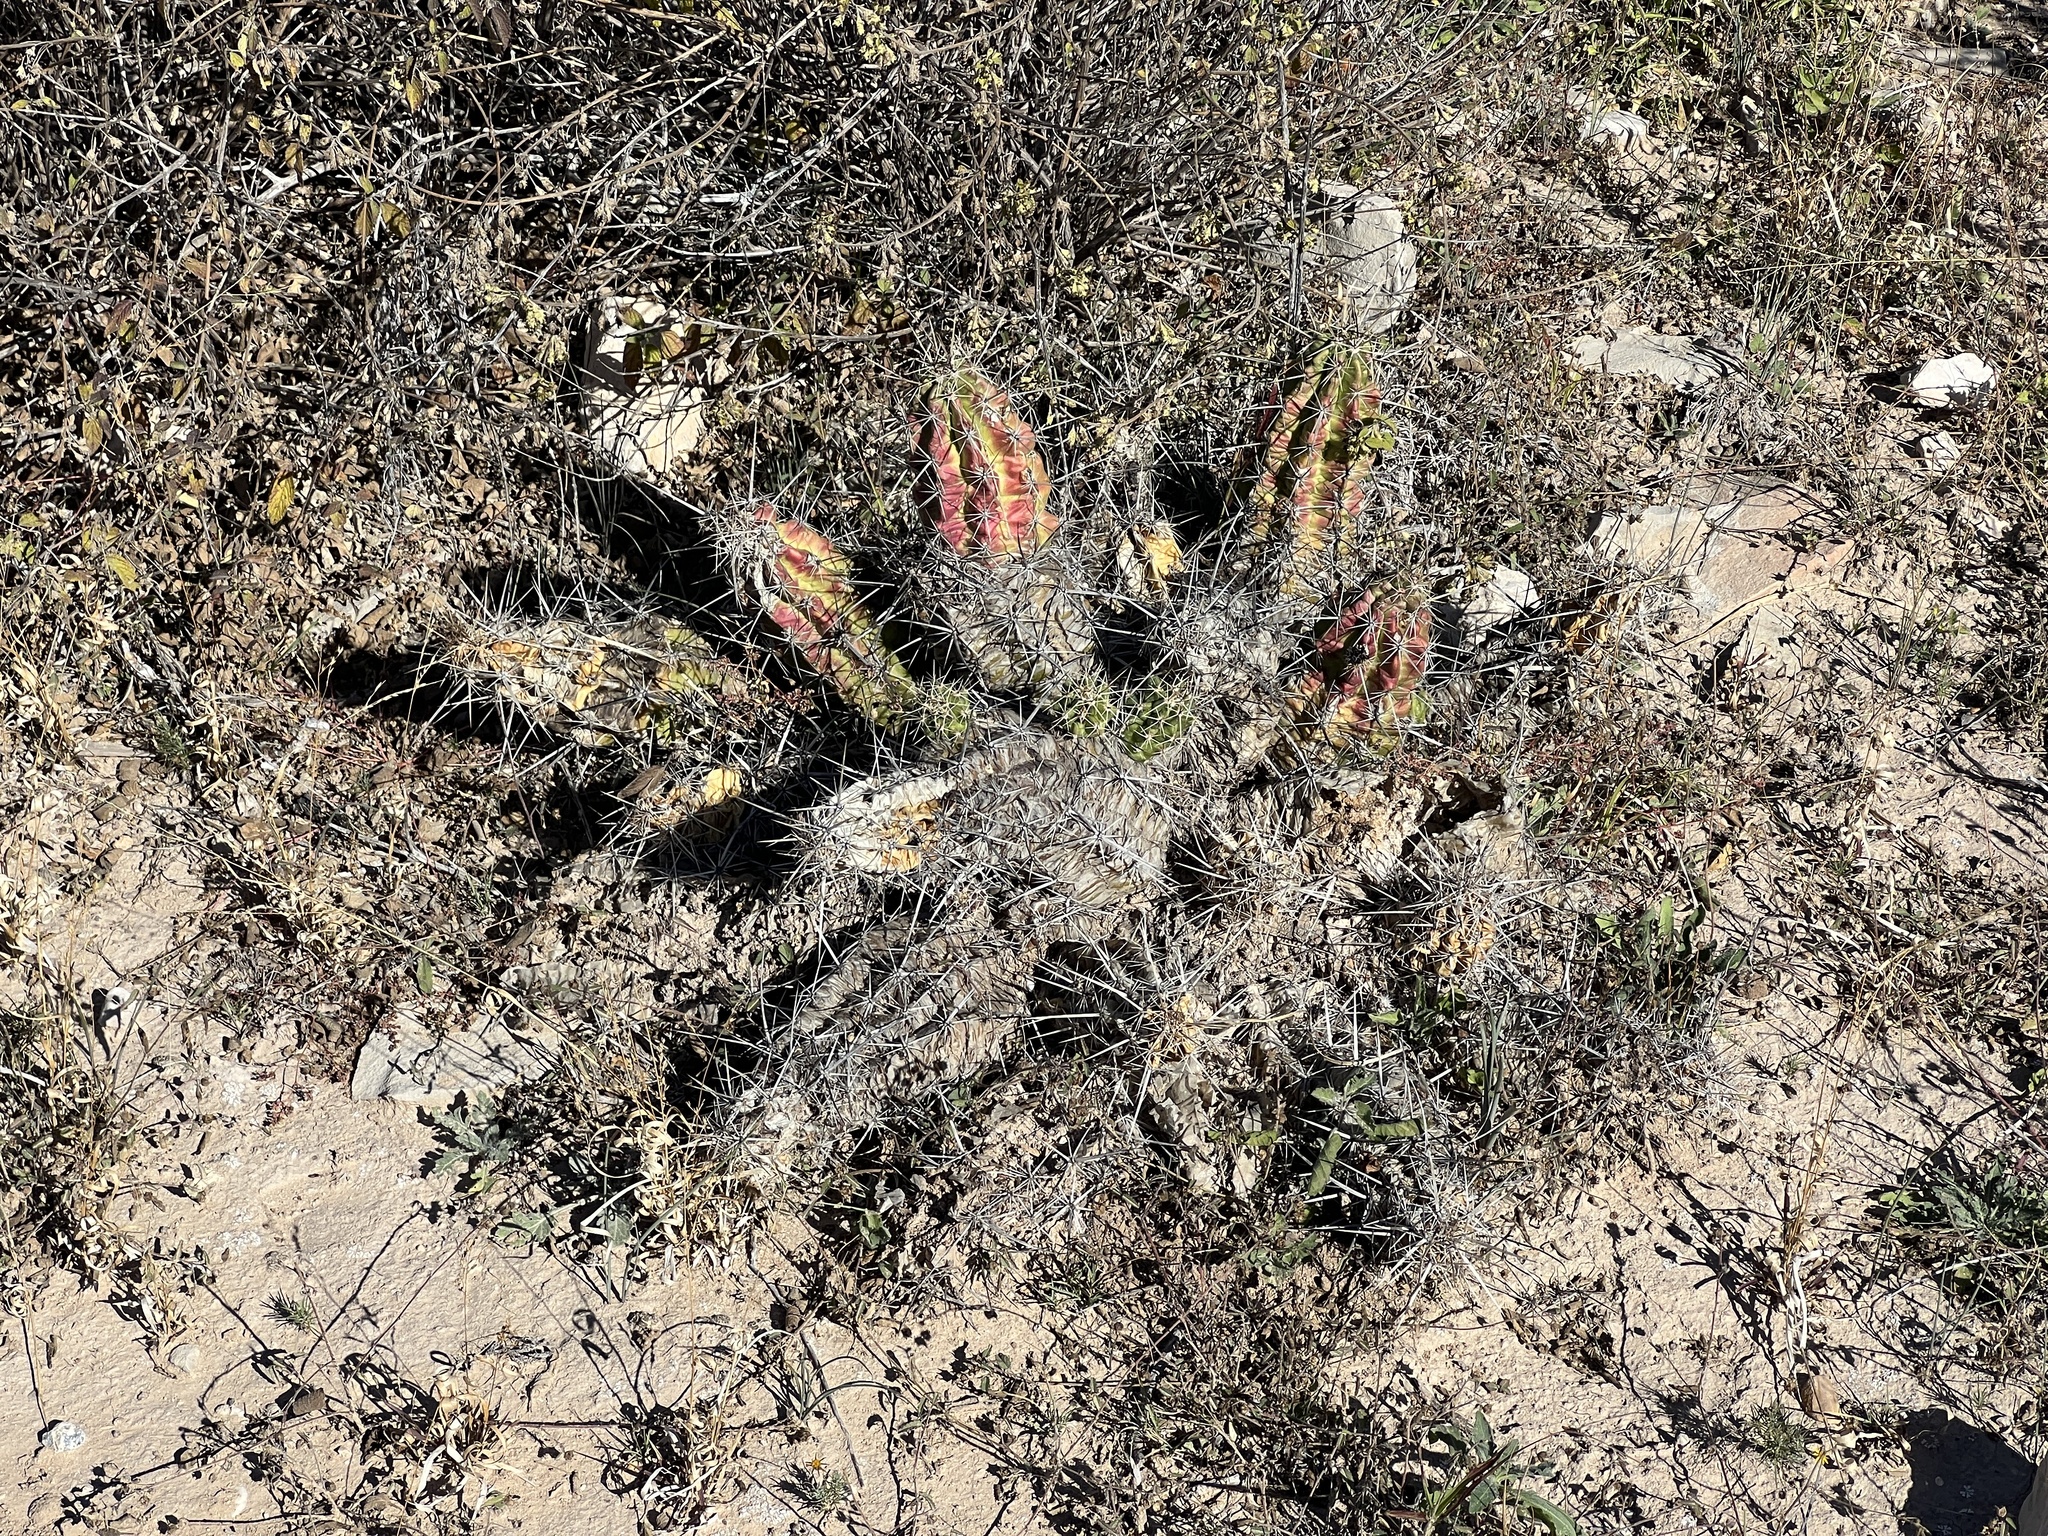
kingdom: Plantae
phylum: Tracheophyta
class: Magnoliopsida
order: Caryophyllales
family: Cactaceae
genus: Echinocereus
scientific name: Echinocereus enneacanthus
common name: Pitaya
